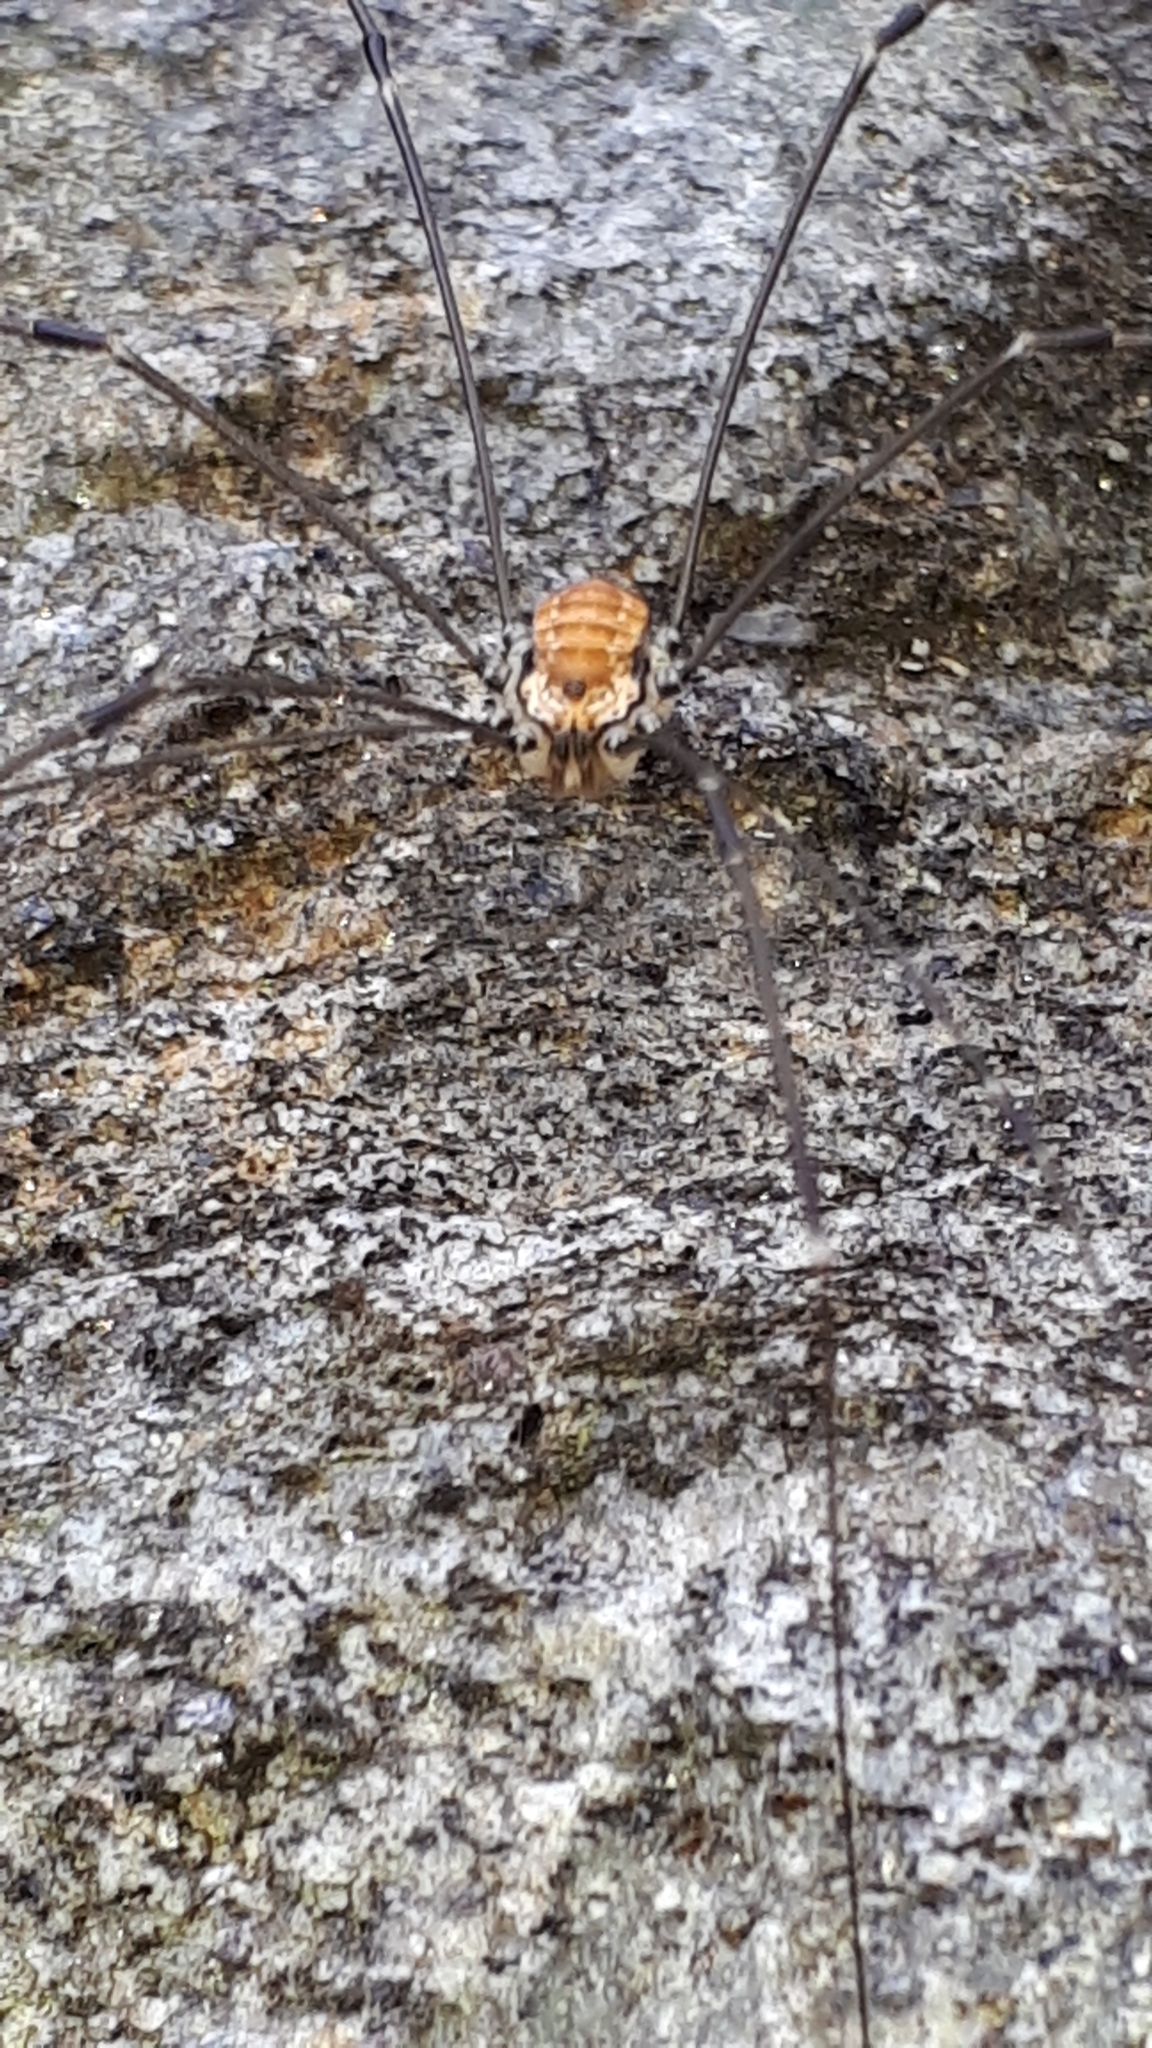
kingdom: Animalia
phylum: Arthropoda
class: Arachnida
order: Opiliones
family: Sclerosomatidae
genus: Leiobunum
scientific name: Leiobunum limbatum
